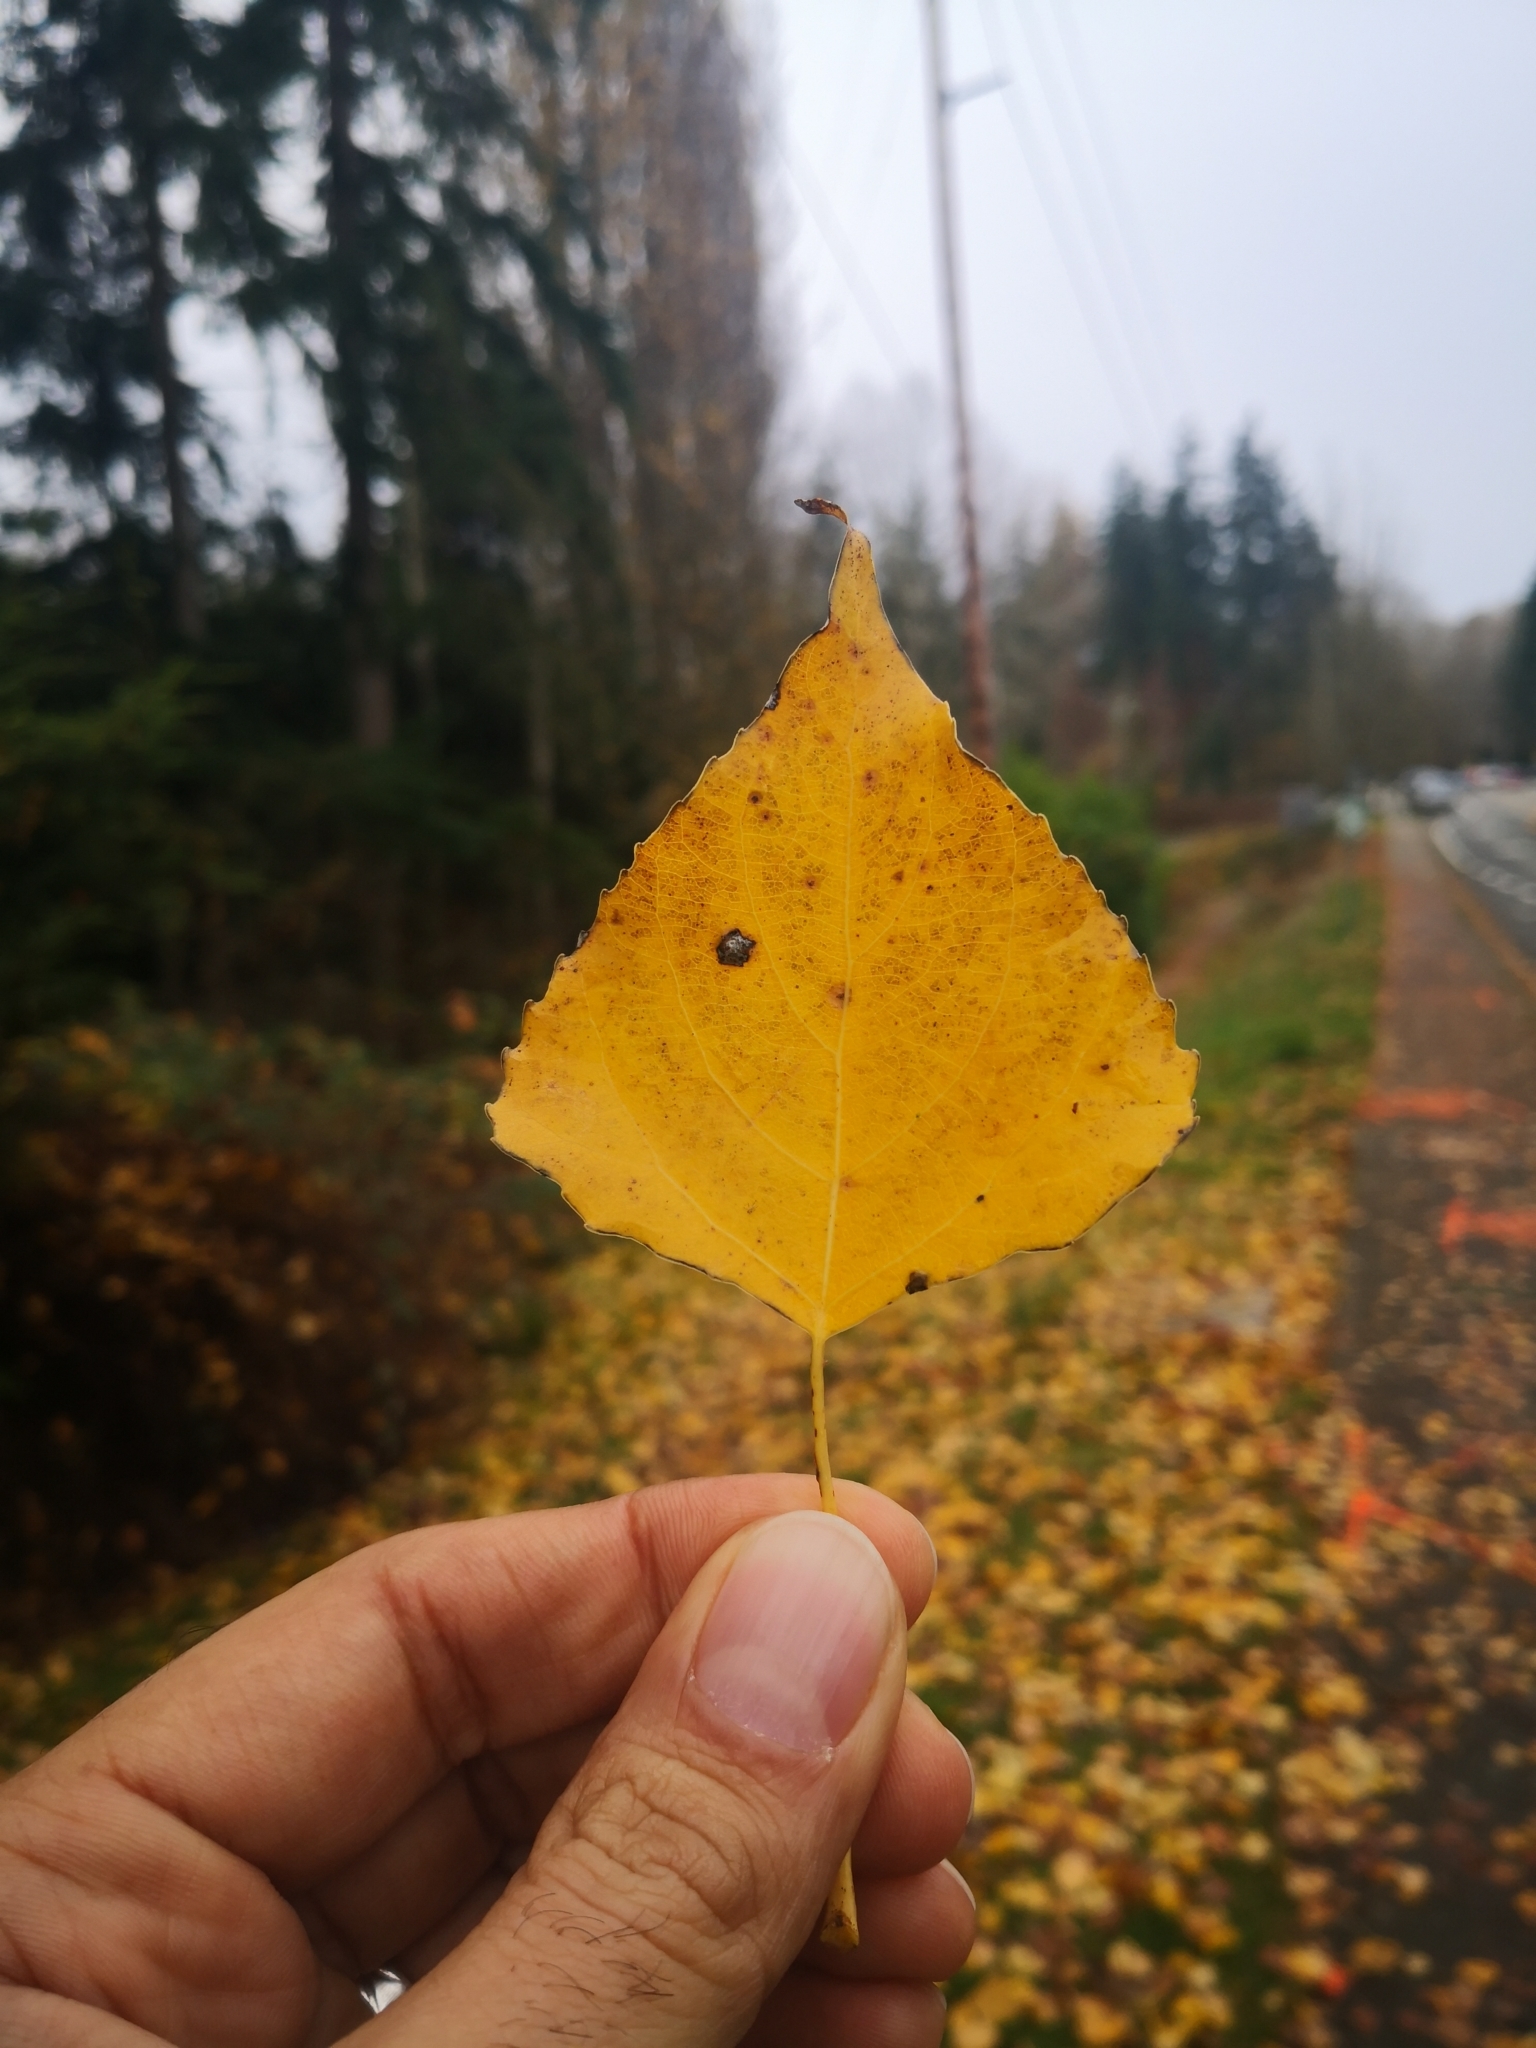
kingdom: Plantae
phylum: Tracheophyta
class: Magnoliopsida
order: Malpighiales
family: Salicaceae
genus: Populus
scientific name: Populus nigra
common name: Black poplar
